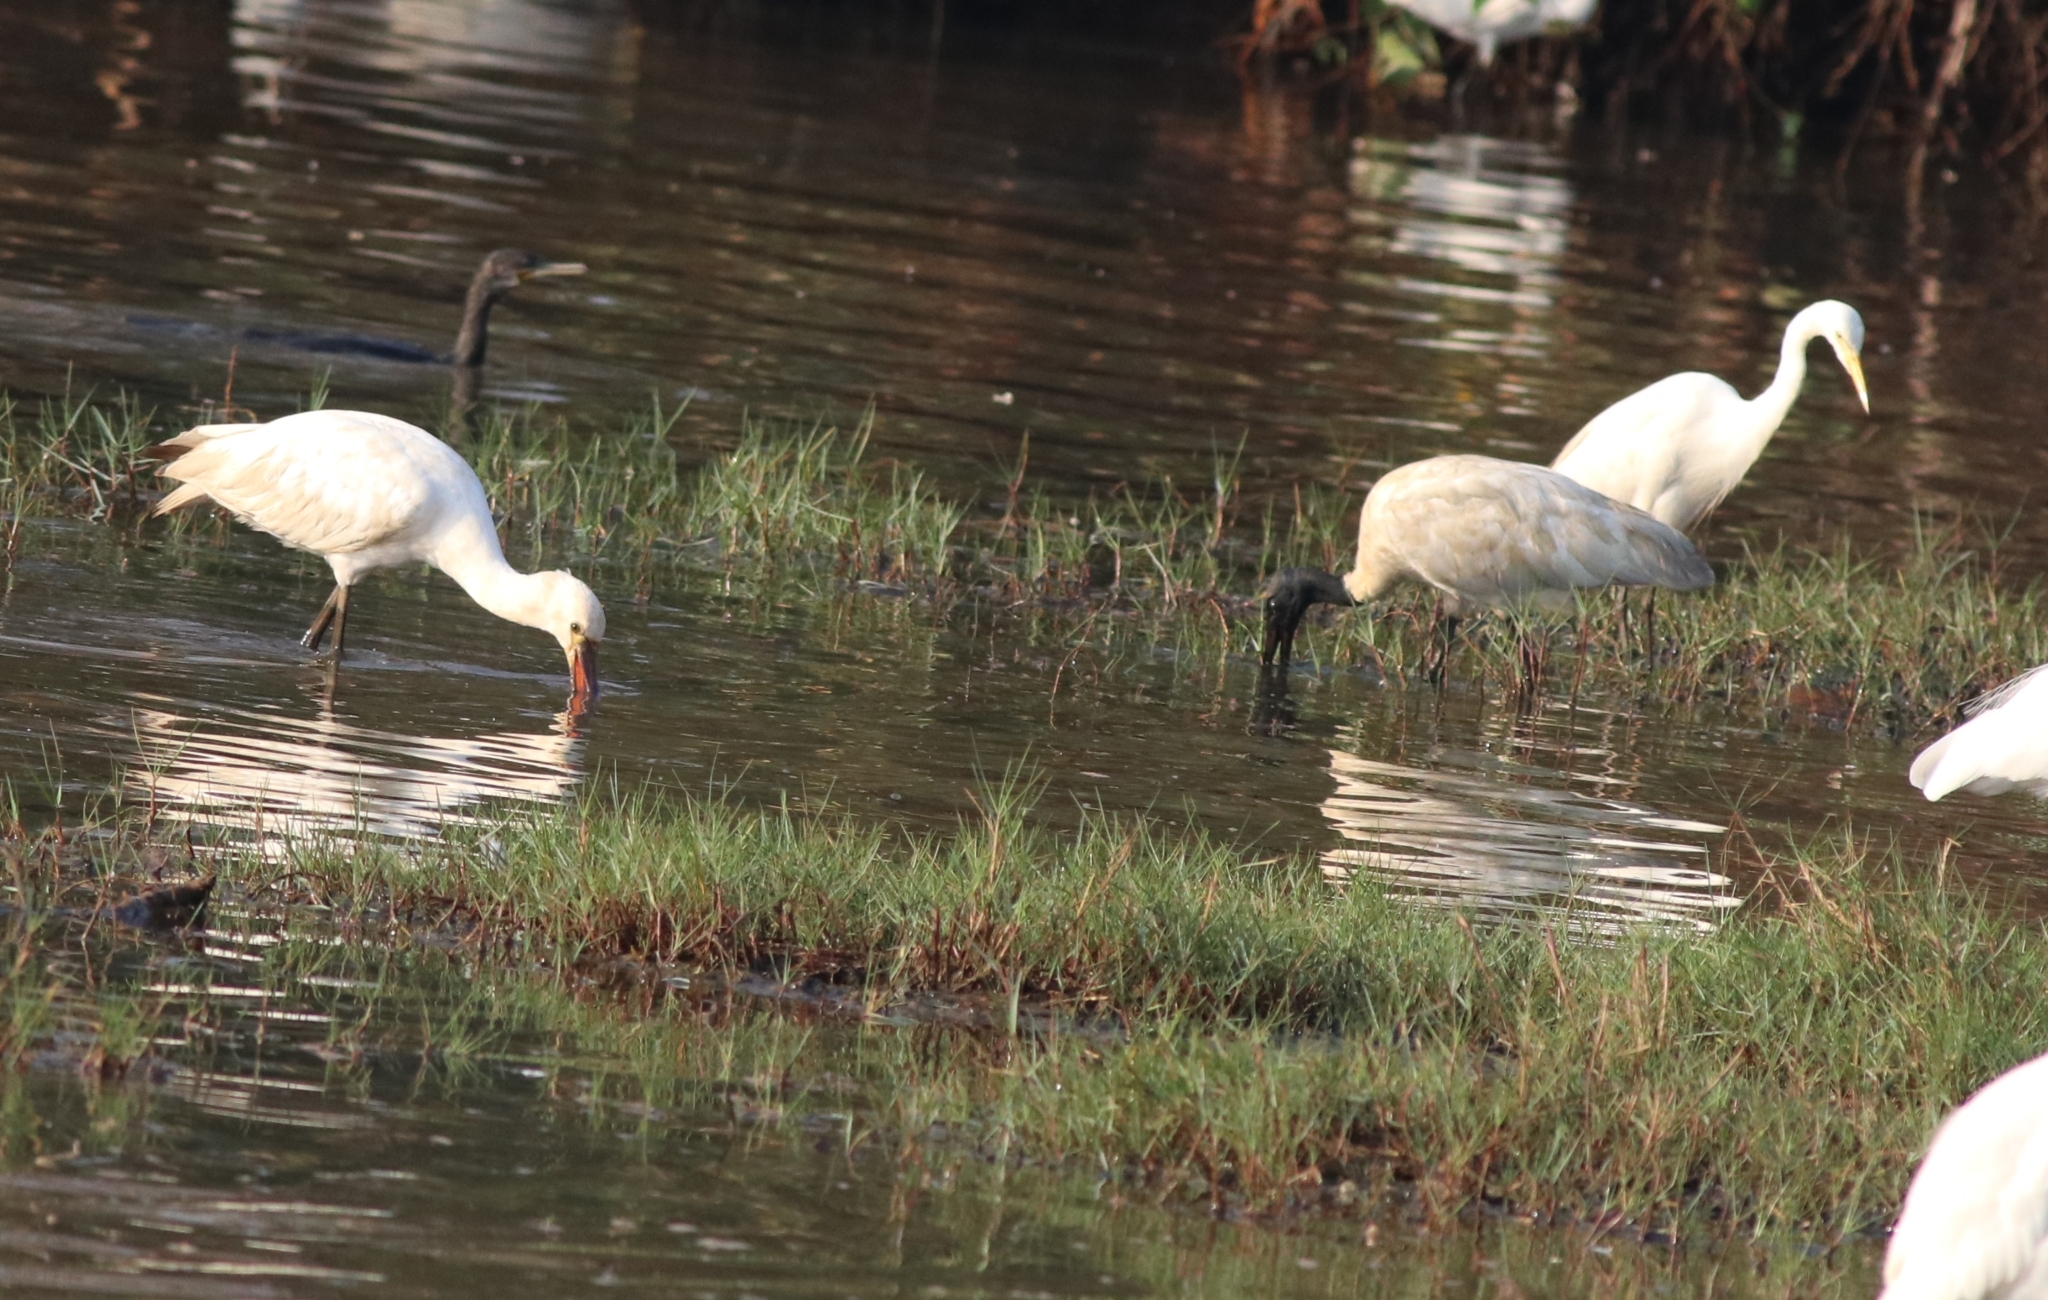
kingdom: Animalia
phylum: Chordata
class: Aves
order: Pelecaniformes
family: Threskiornithidae
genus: Platalea
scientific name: Platalea leucorodia
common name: Eurasian spoonbill
